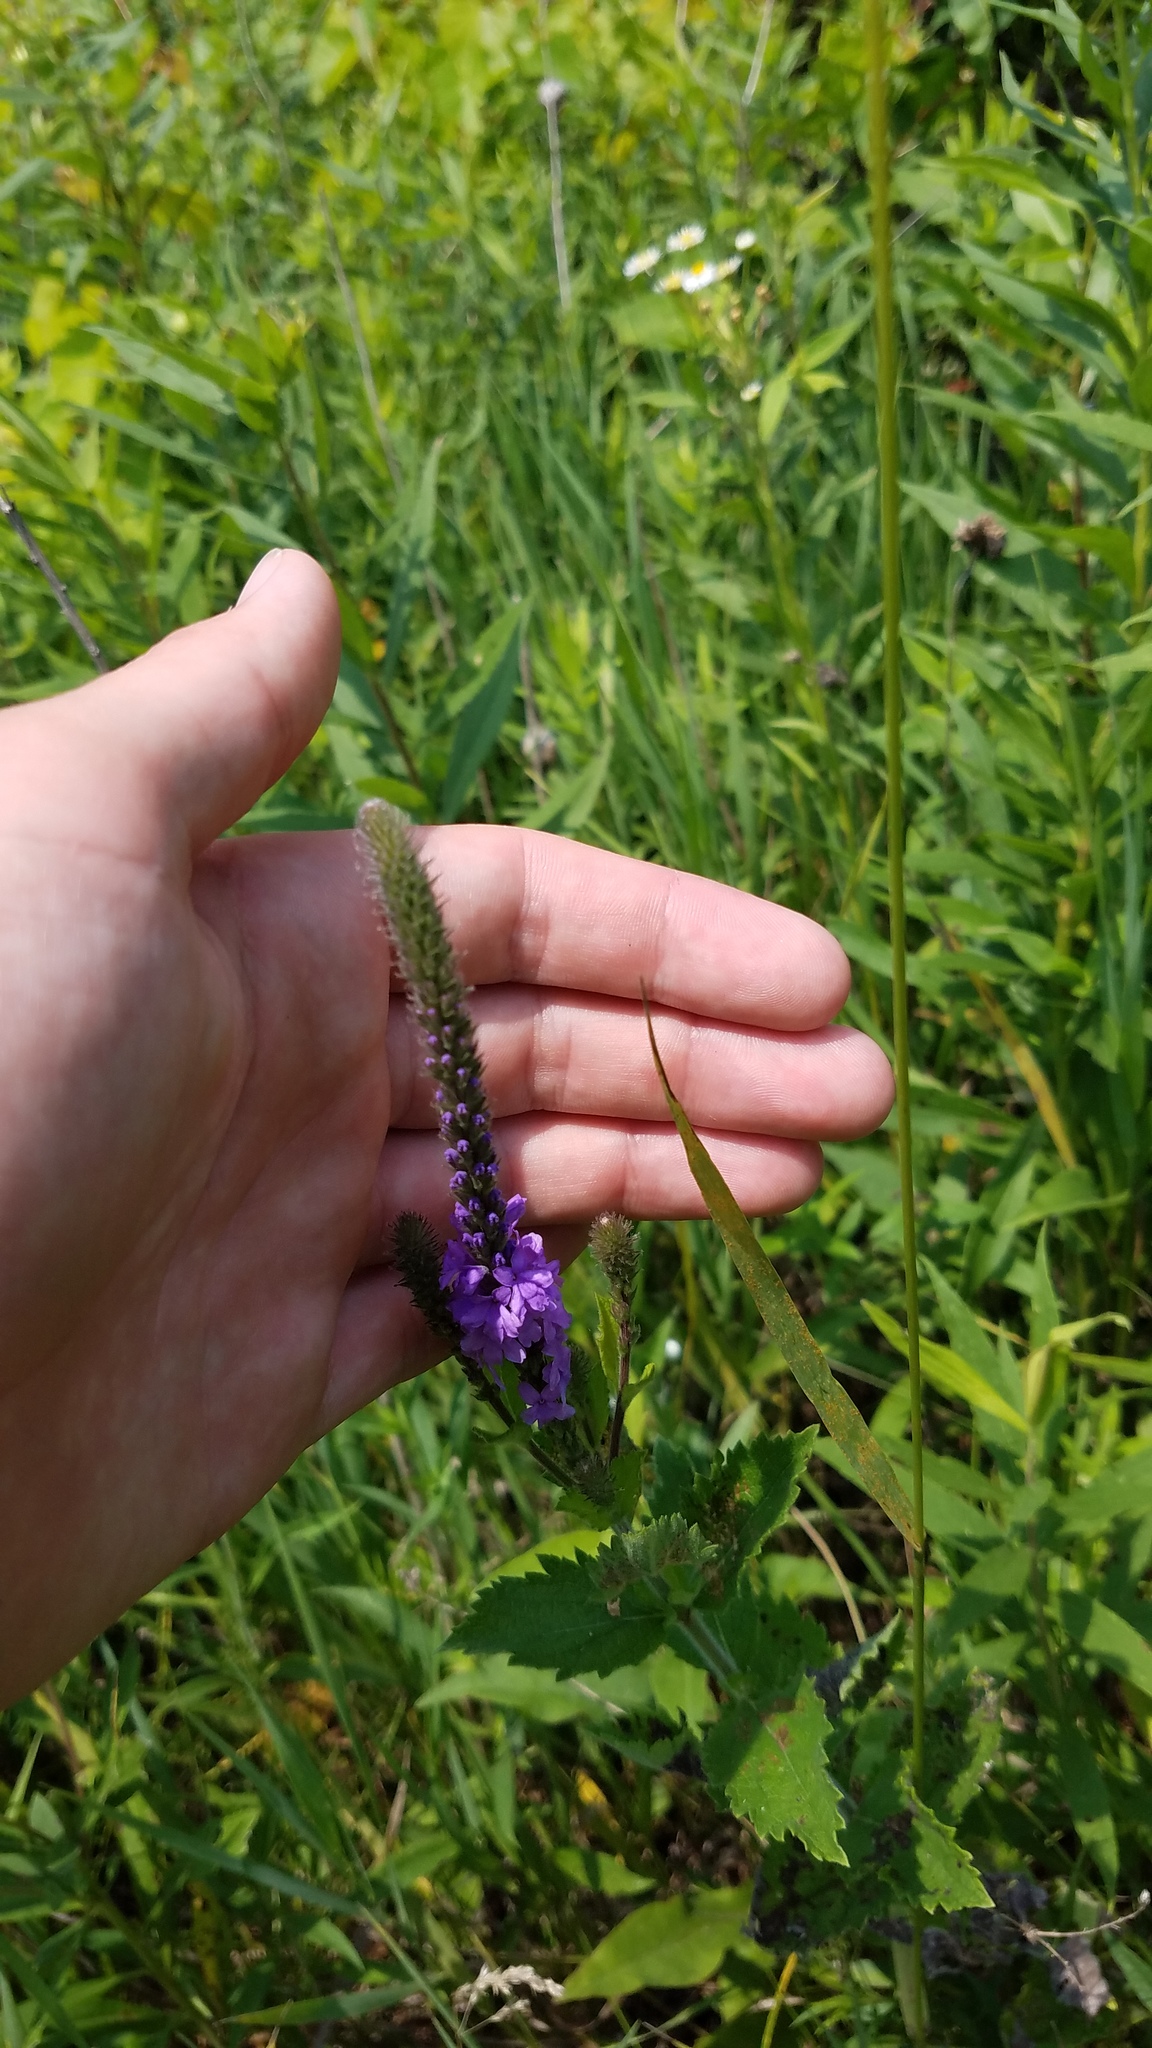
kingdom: Plantae
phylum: Tracheophyta
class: Magnoliopsida
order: Lamiales
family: Verbenaceae
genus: Verbena
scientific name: Verbena stricta
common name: Hoary vervain
